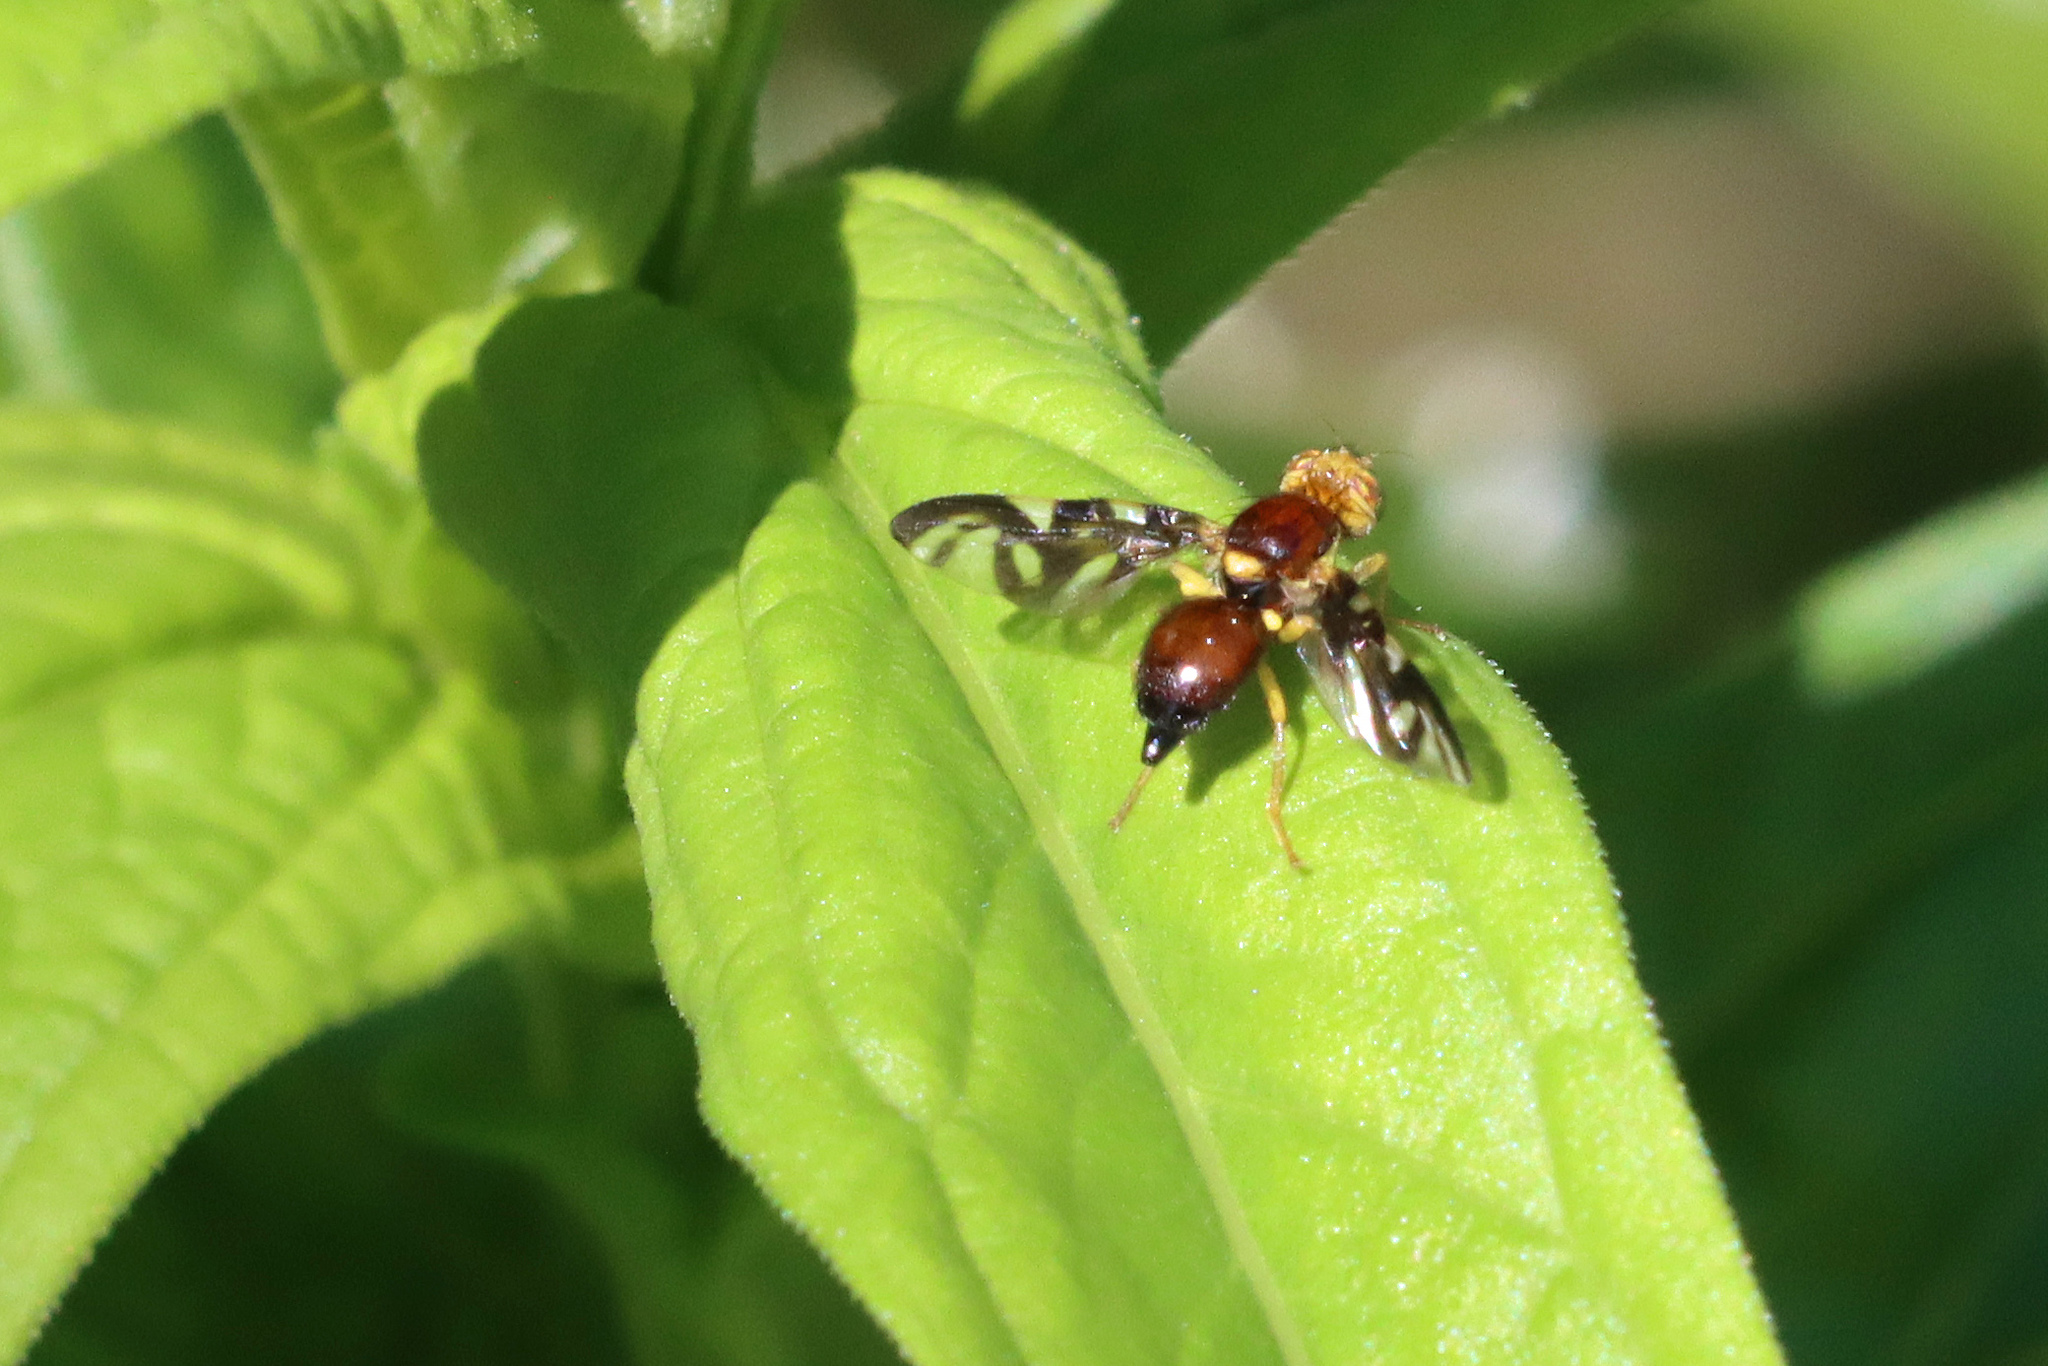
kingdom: Animalia
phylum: Arthropoda
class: Insecta
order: Diptera
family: Tephritidae
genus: Euleia
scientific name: Euleia heraclei
